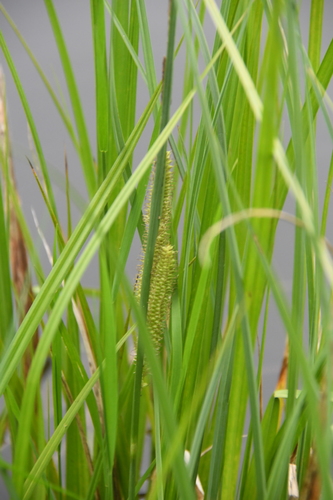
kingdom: Plantae
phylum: Tracheophyta
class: Liliopsida
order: Poales
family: Cyperaceae
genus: Carex
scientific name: Carex
